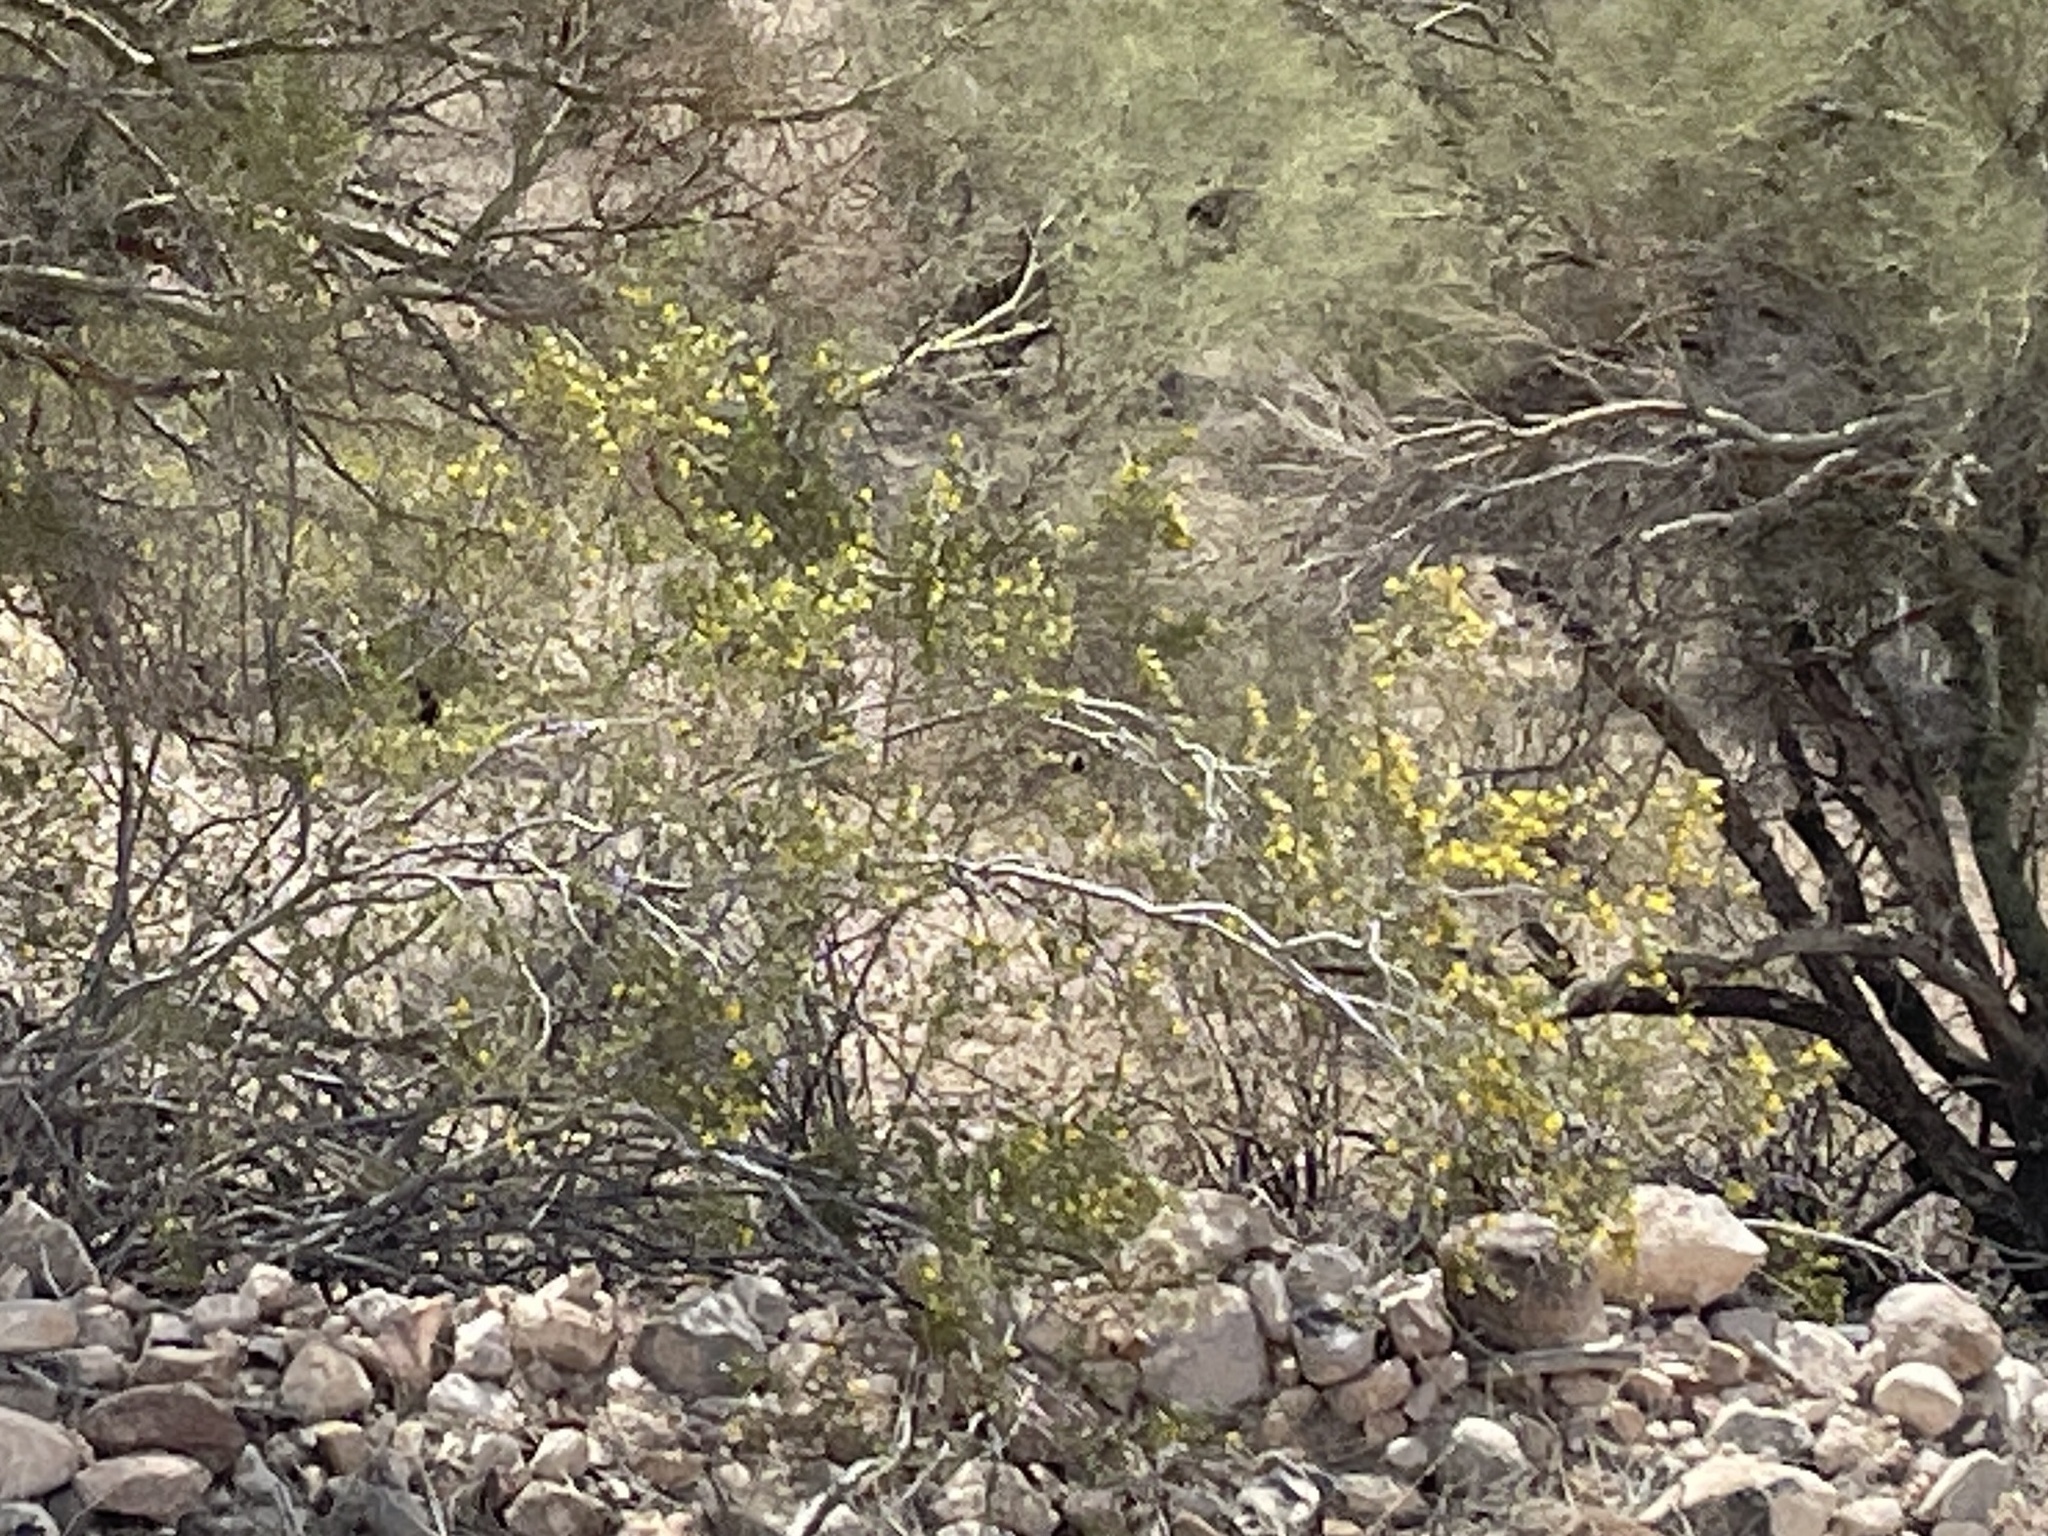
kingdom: Plantae
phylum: Tracheophyta
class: Magnoliopsida
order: Zygophyllales
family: Zygophyllaceae
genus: Larrea
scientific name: Larrea tridentata
